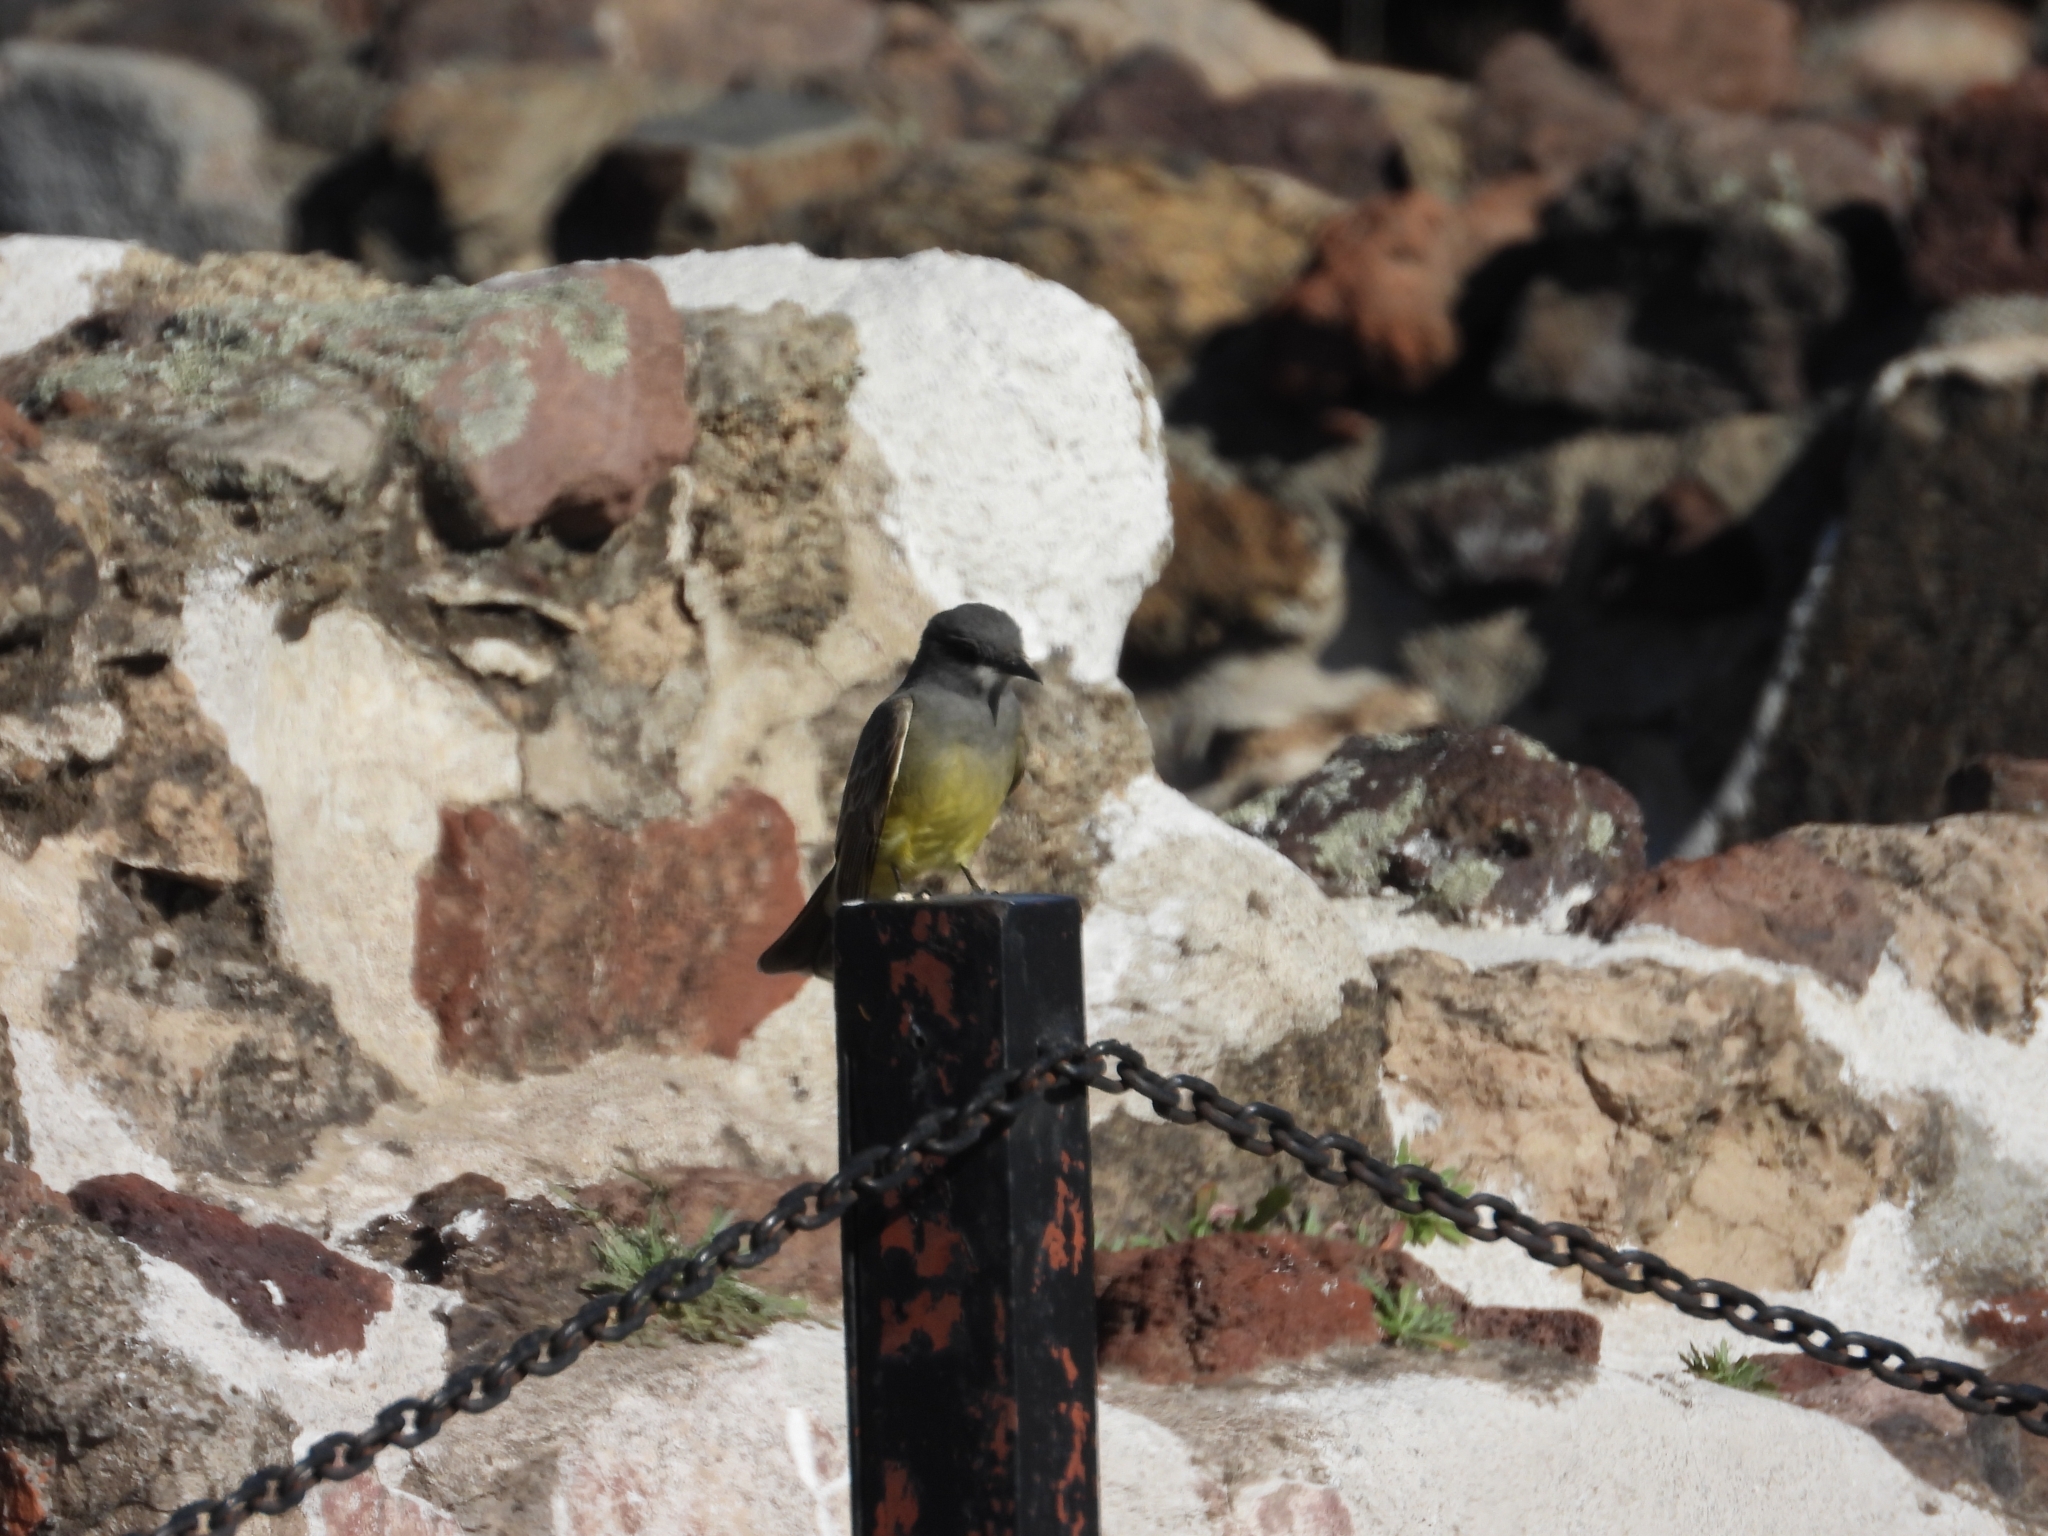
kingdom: Animalia
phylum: Chordata
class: Aves
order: Passeriformes
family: Tyrannidae
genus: Tyrannus
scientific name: Tyrannus vociferans
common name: Cassin's kingbird
